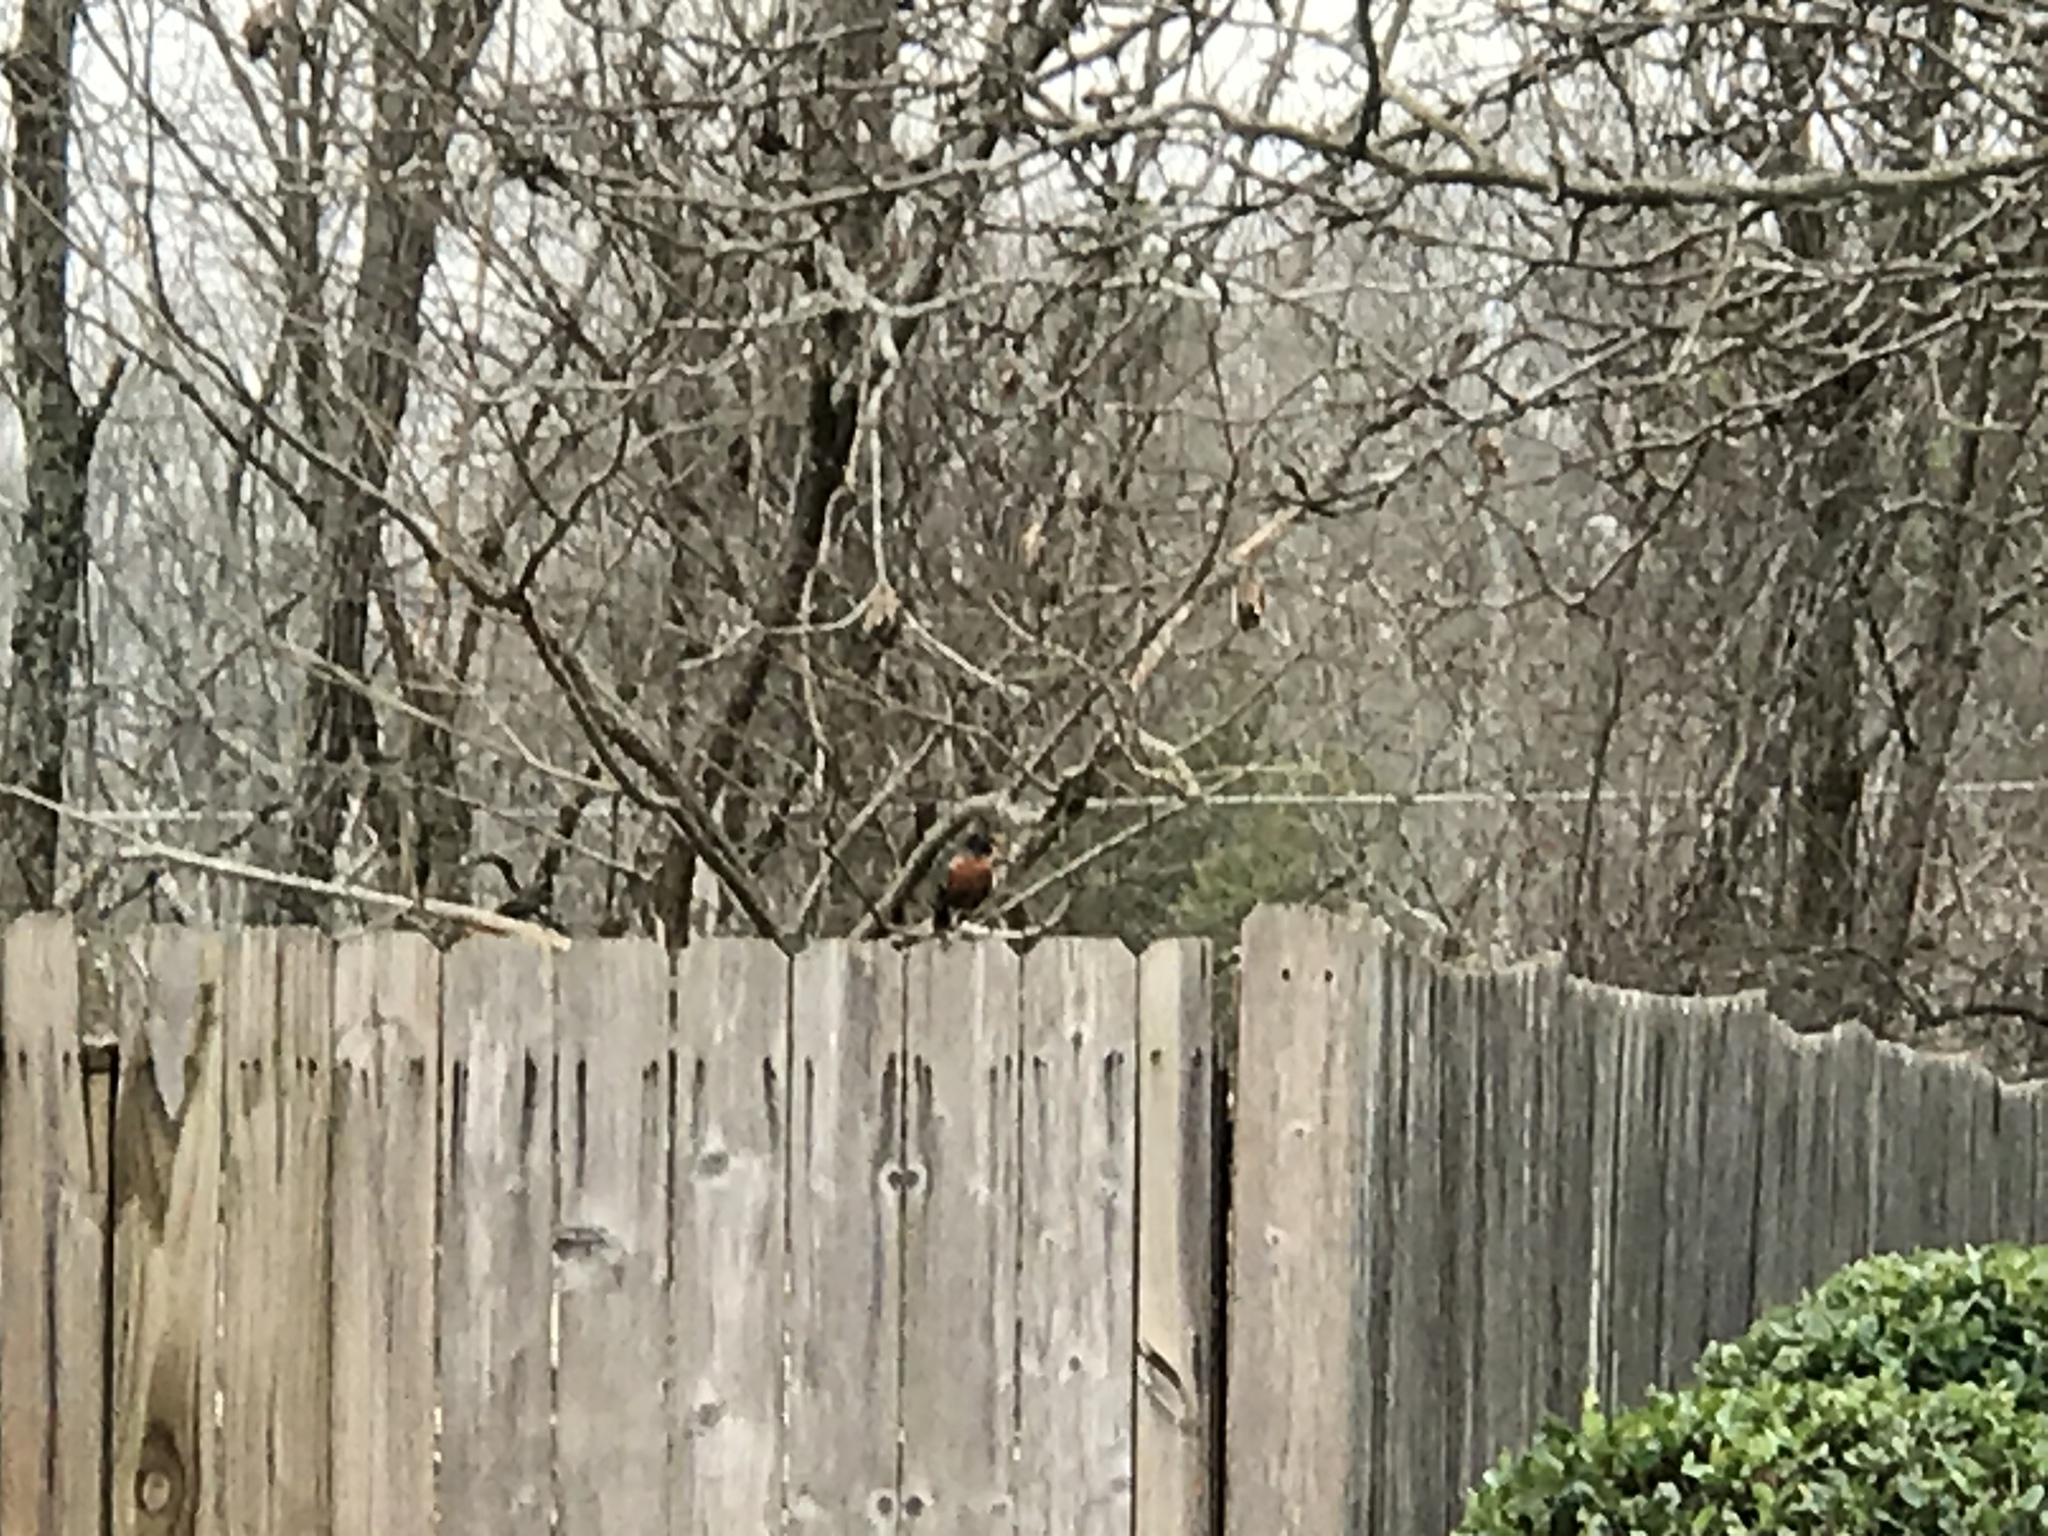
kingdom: Animalia
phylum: Chordata
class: Aves
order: Passeriformes
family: Turdidae
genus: Turdus
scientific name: Turdus migratorius
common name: American robin
